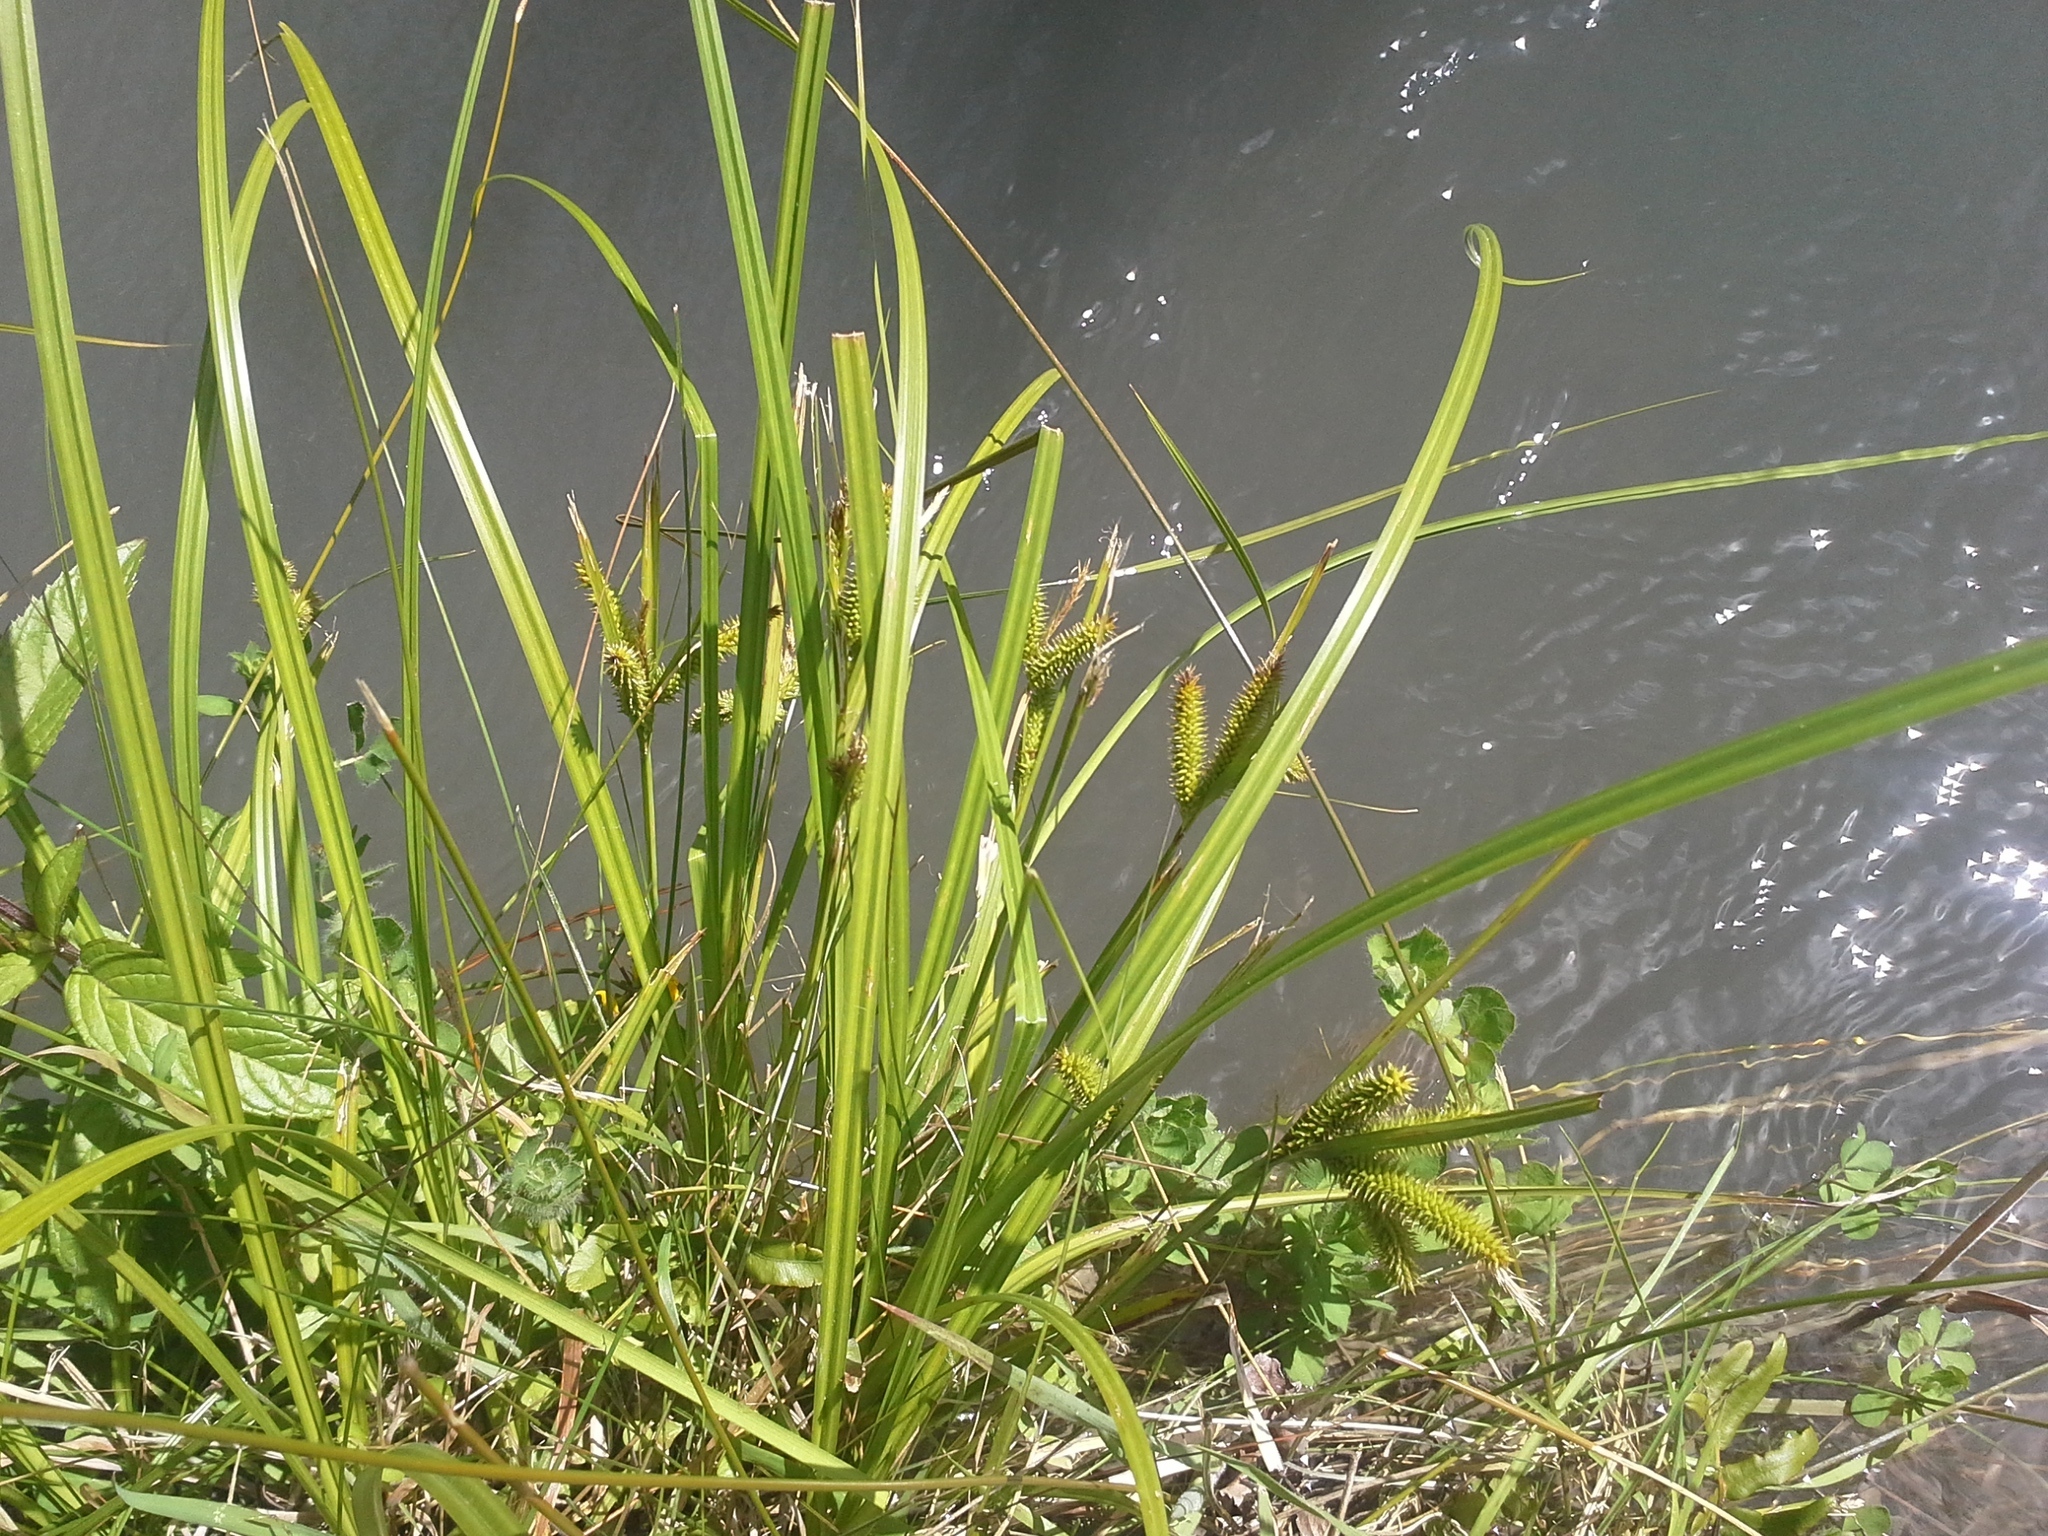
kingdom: Plantae
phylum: Tracheophyta
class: Liliopsida
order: Poales
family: Cyperaceae
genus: Carex
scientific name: Carex maorica
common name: Maori sedge
